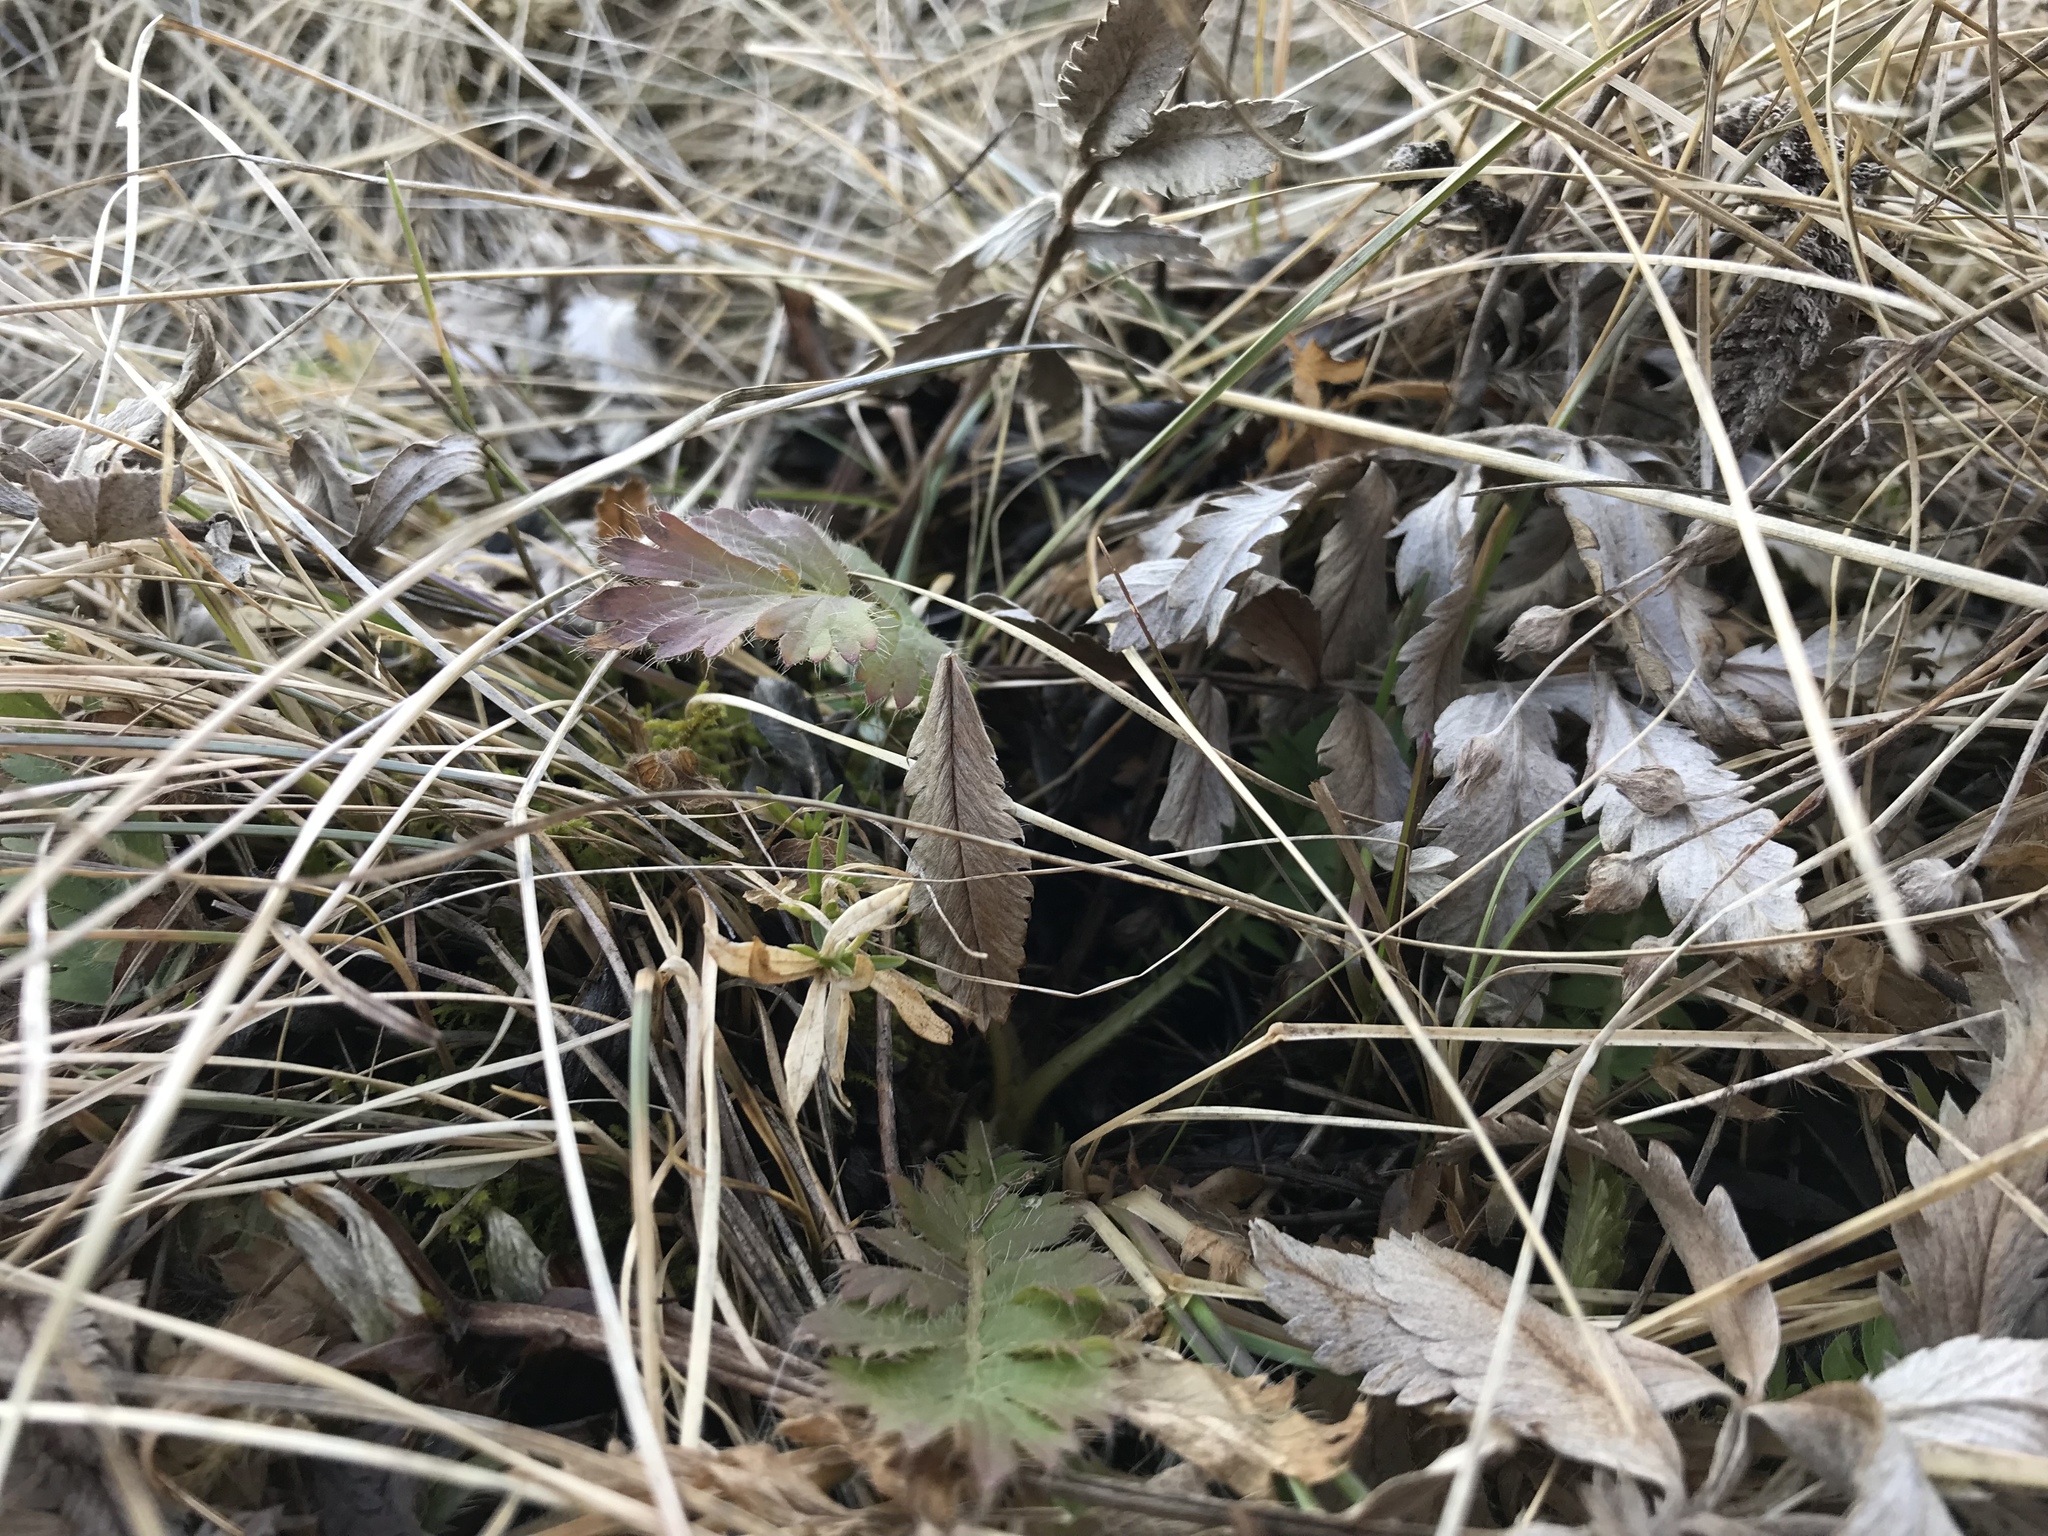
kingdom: Plantae
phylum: Tracheophyta
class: Magnoliopsida
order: Rosales
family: Rosaceae
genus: Geum
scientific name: Geum triflorum
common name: Old man's whiskers
